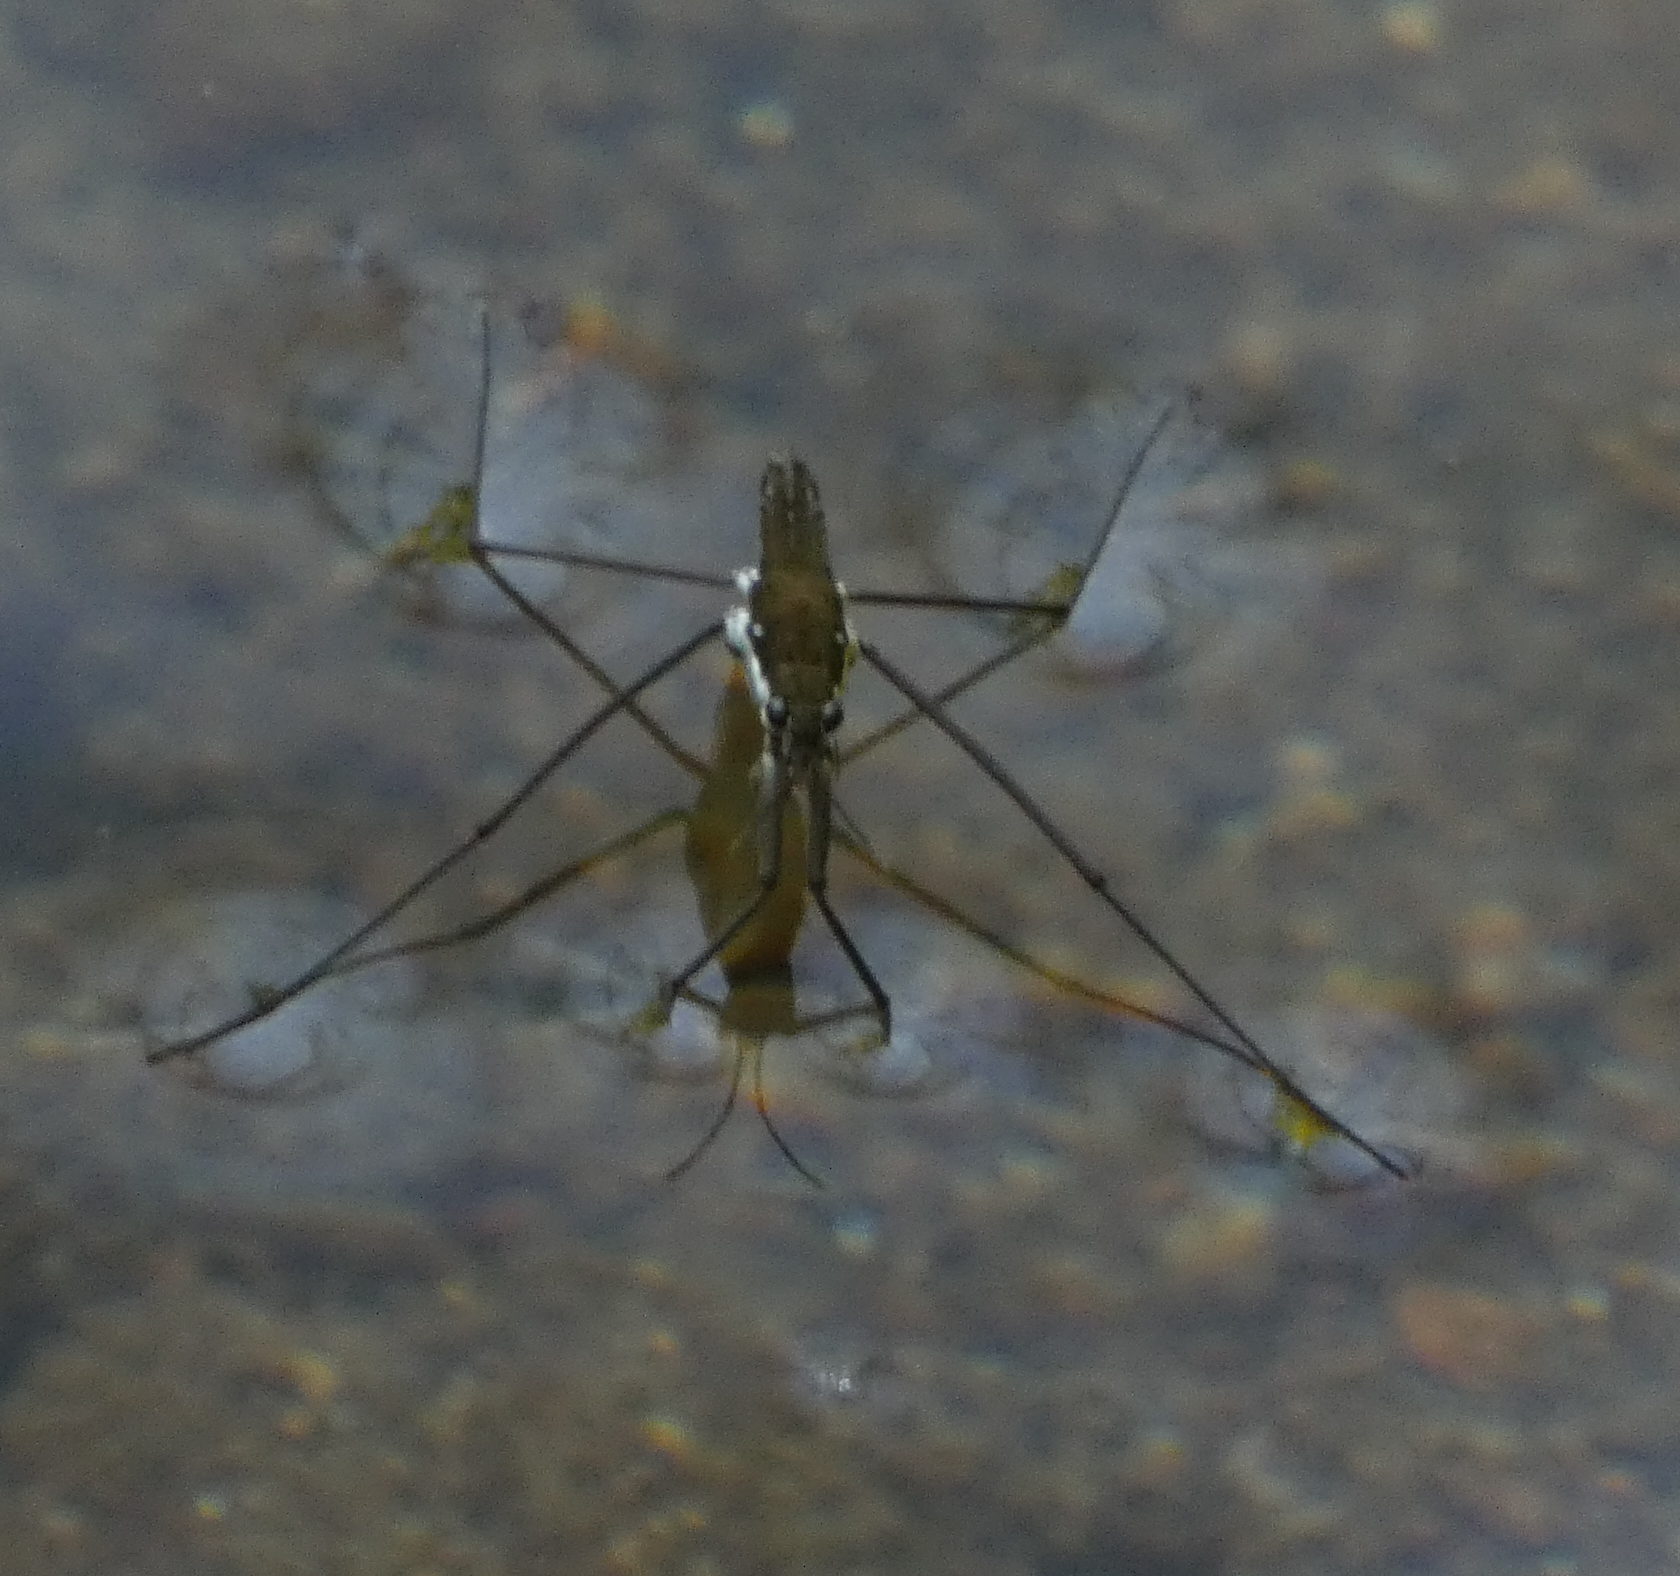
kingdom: Animalia
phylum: Arthropoda
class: Insecta
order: Hemiptera
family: Gerridae
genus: Aquarius
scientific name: Aquarius
